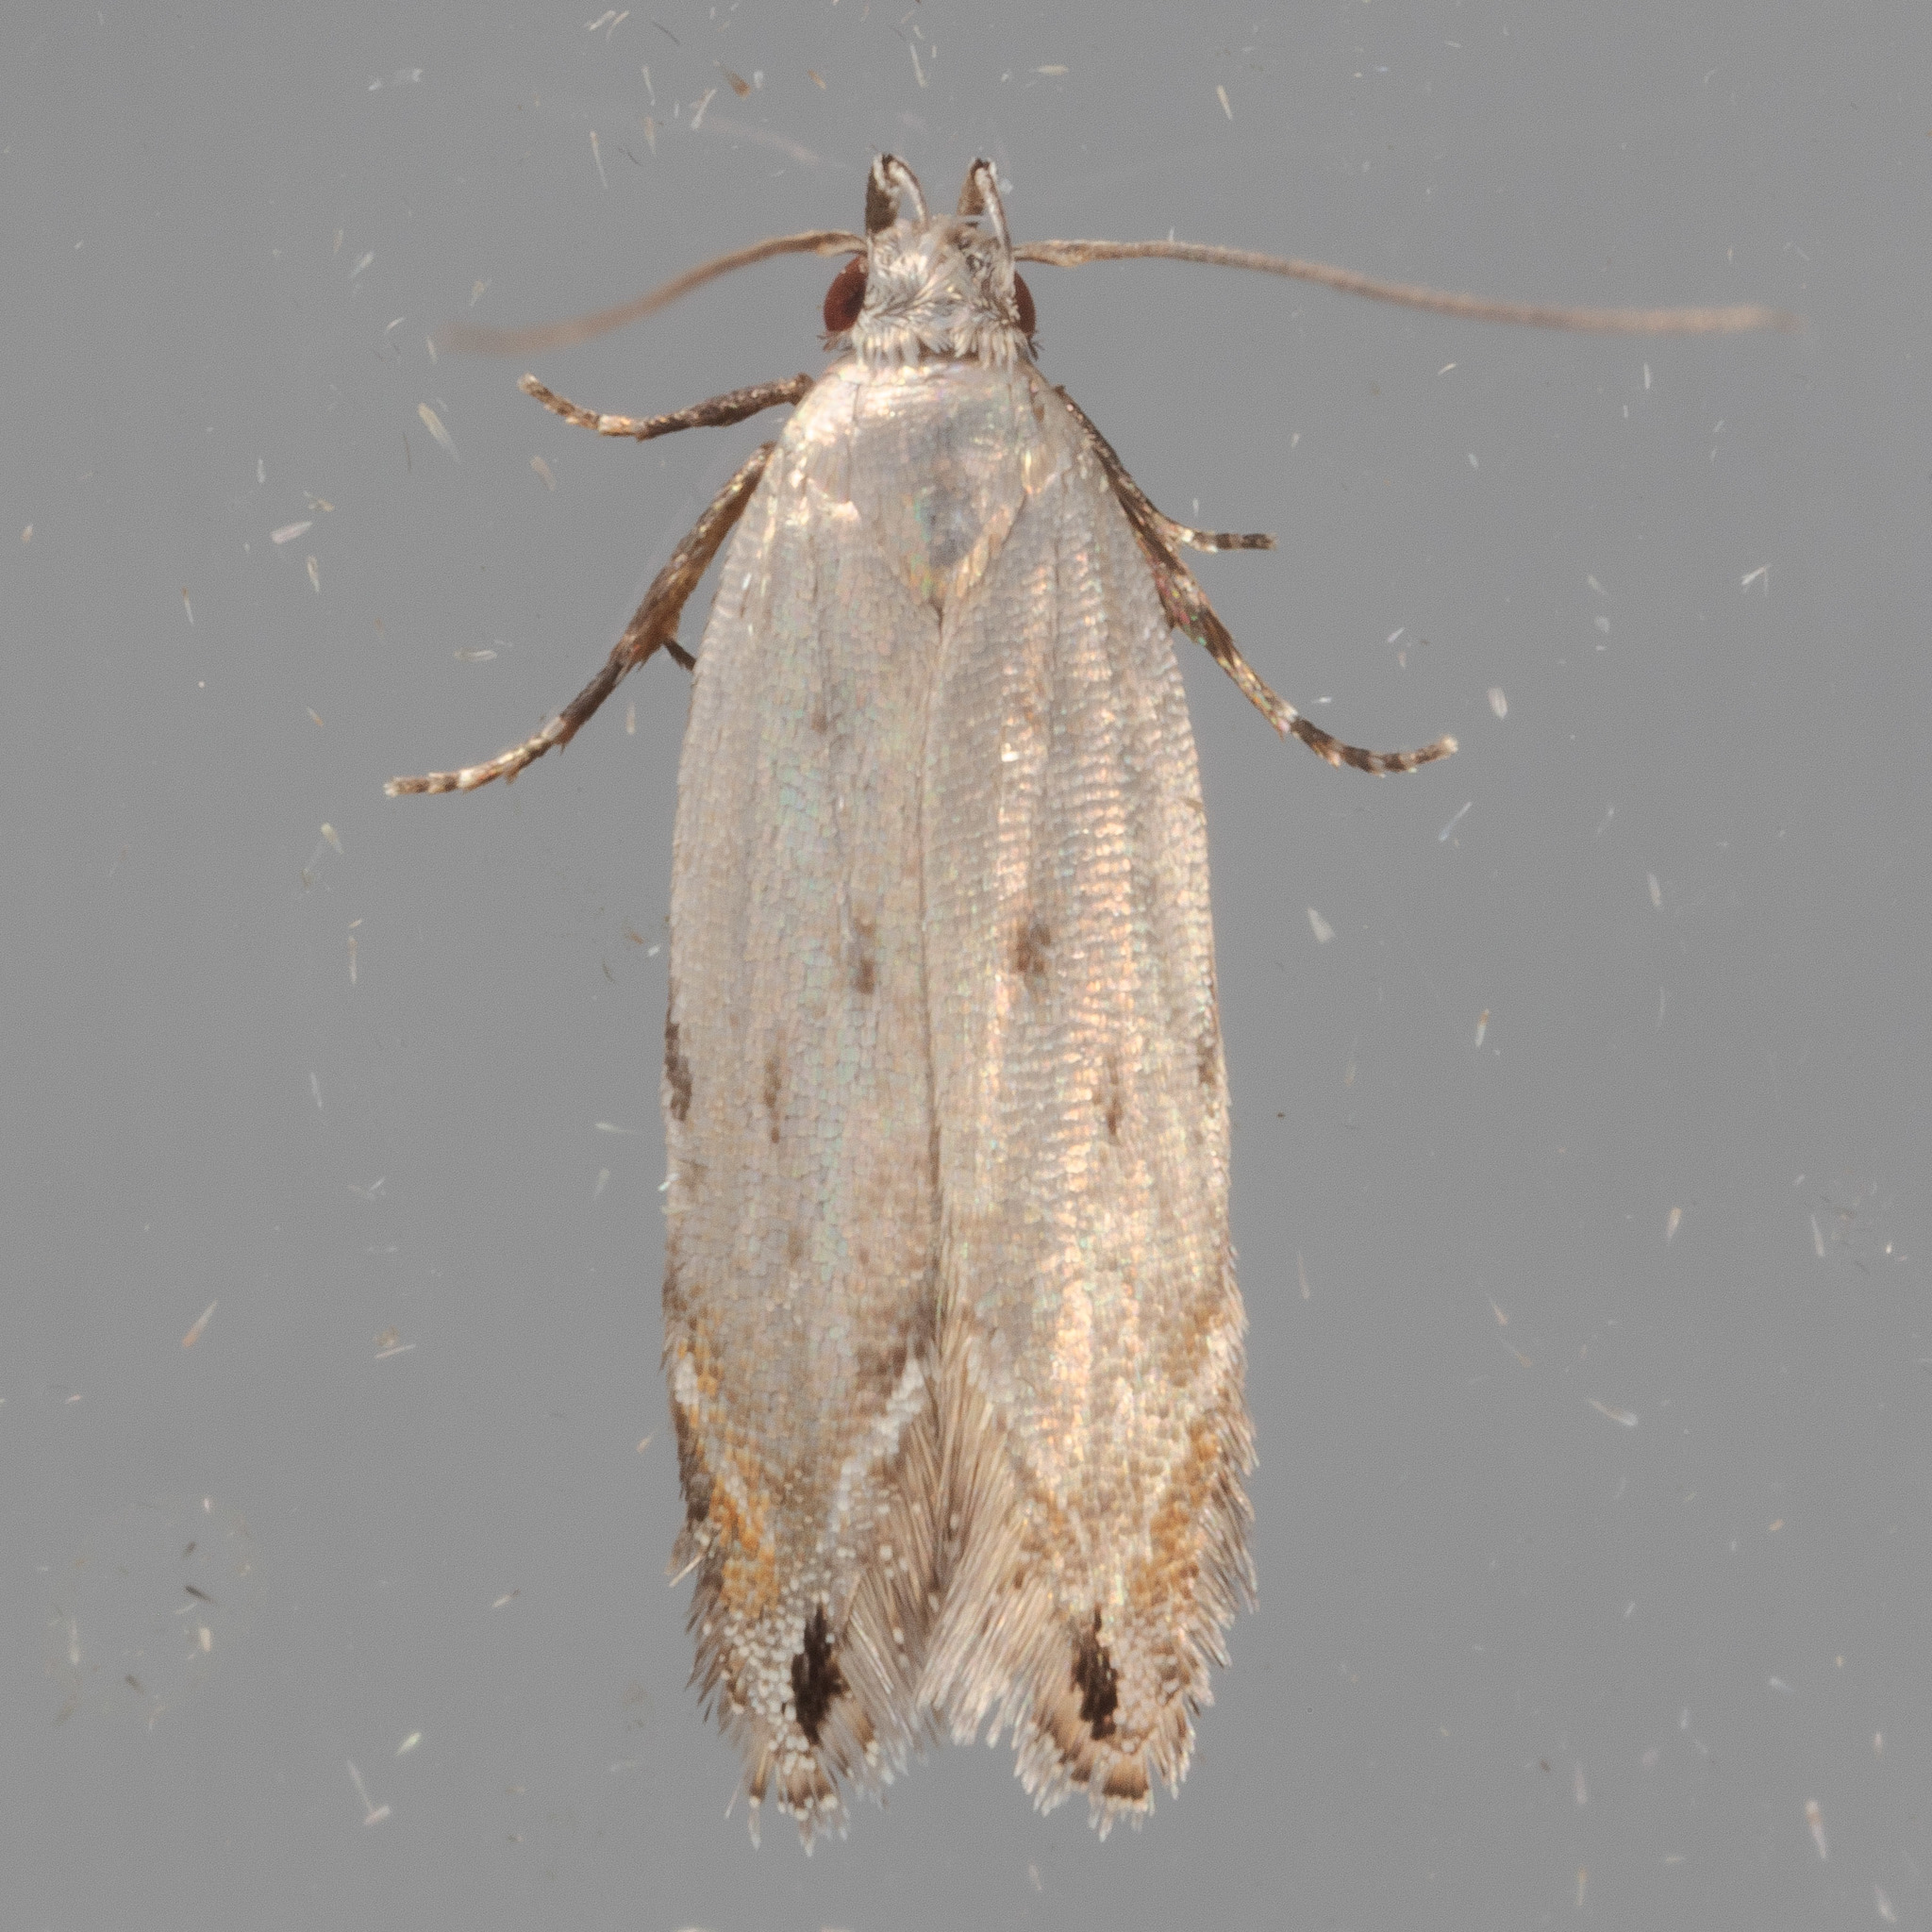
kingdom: Animalia
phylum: Arthropoda
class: Insecta
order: Lepidoptera
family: Gelechiidae
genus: Battaristis
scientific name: Battaristis concinnusella
